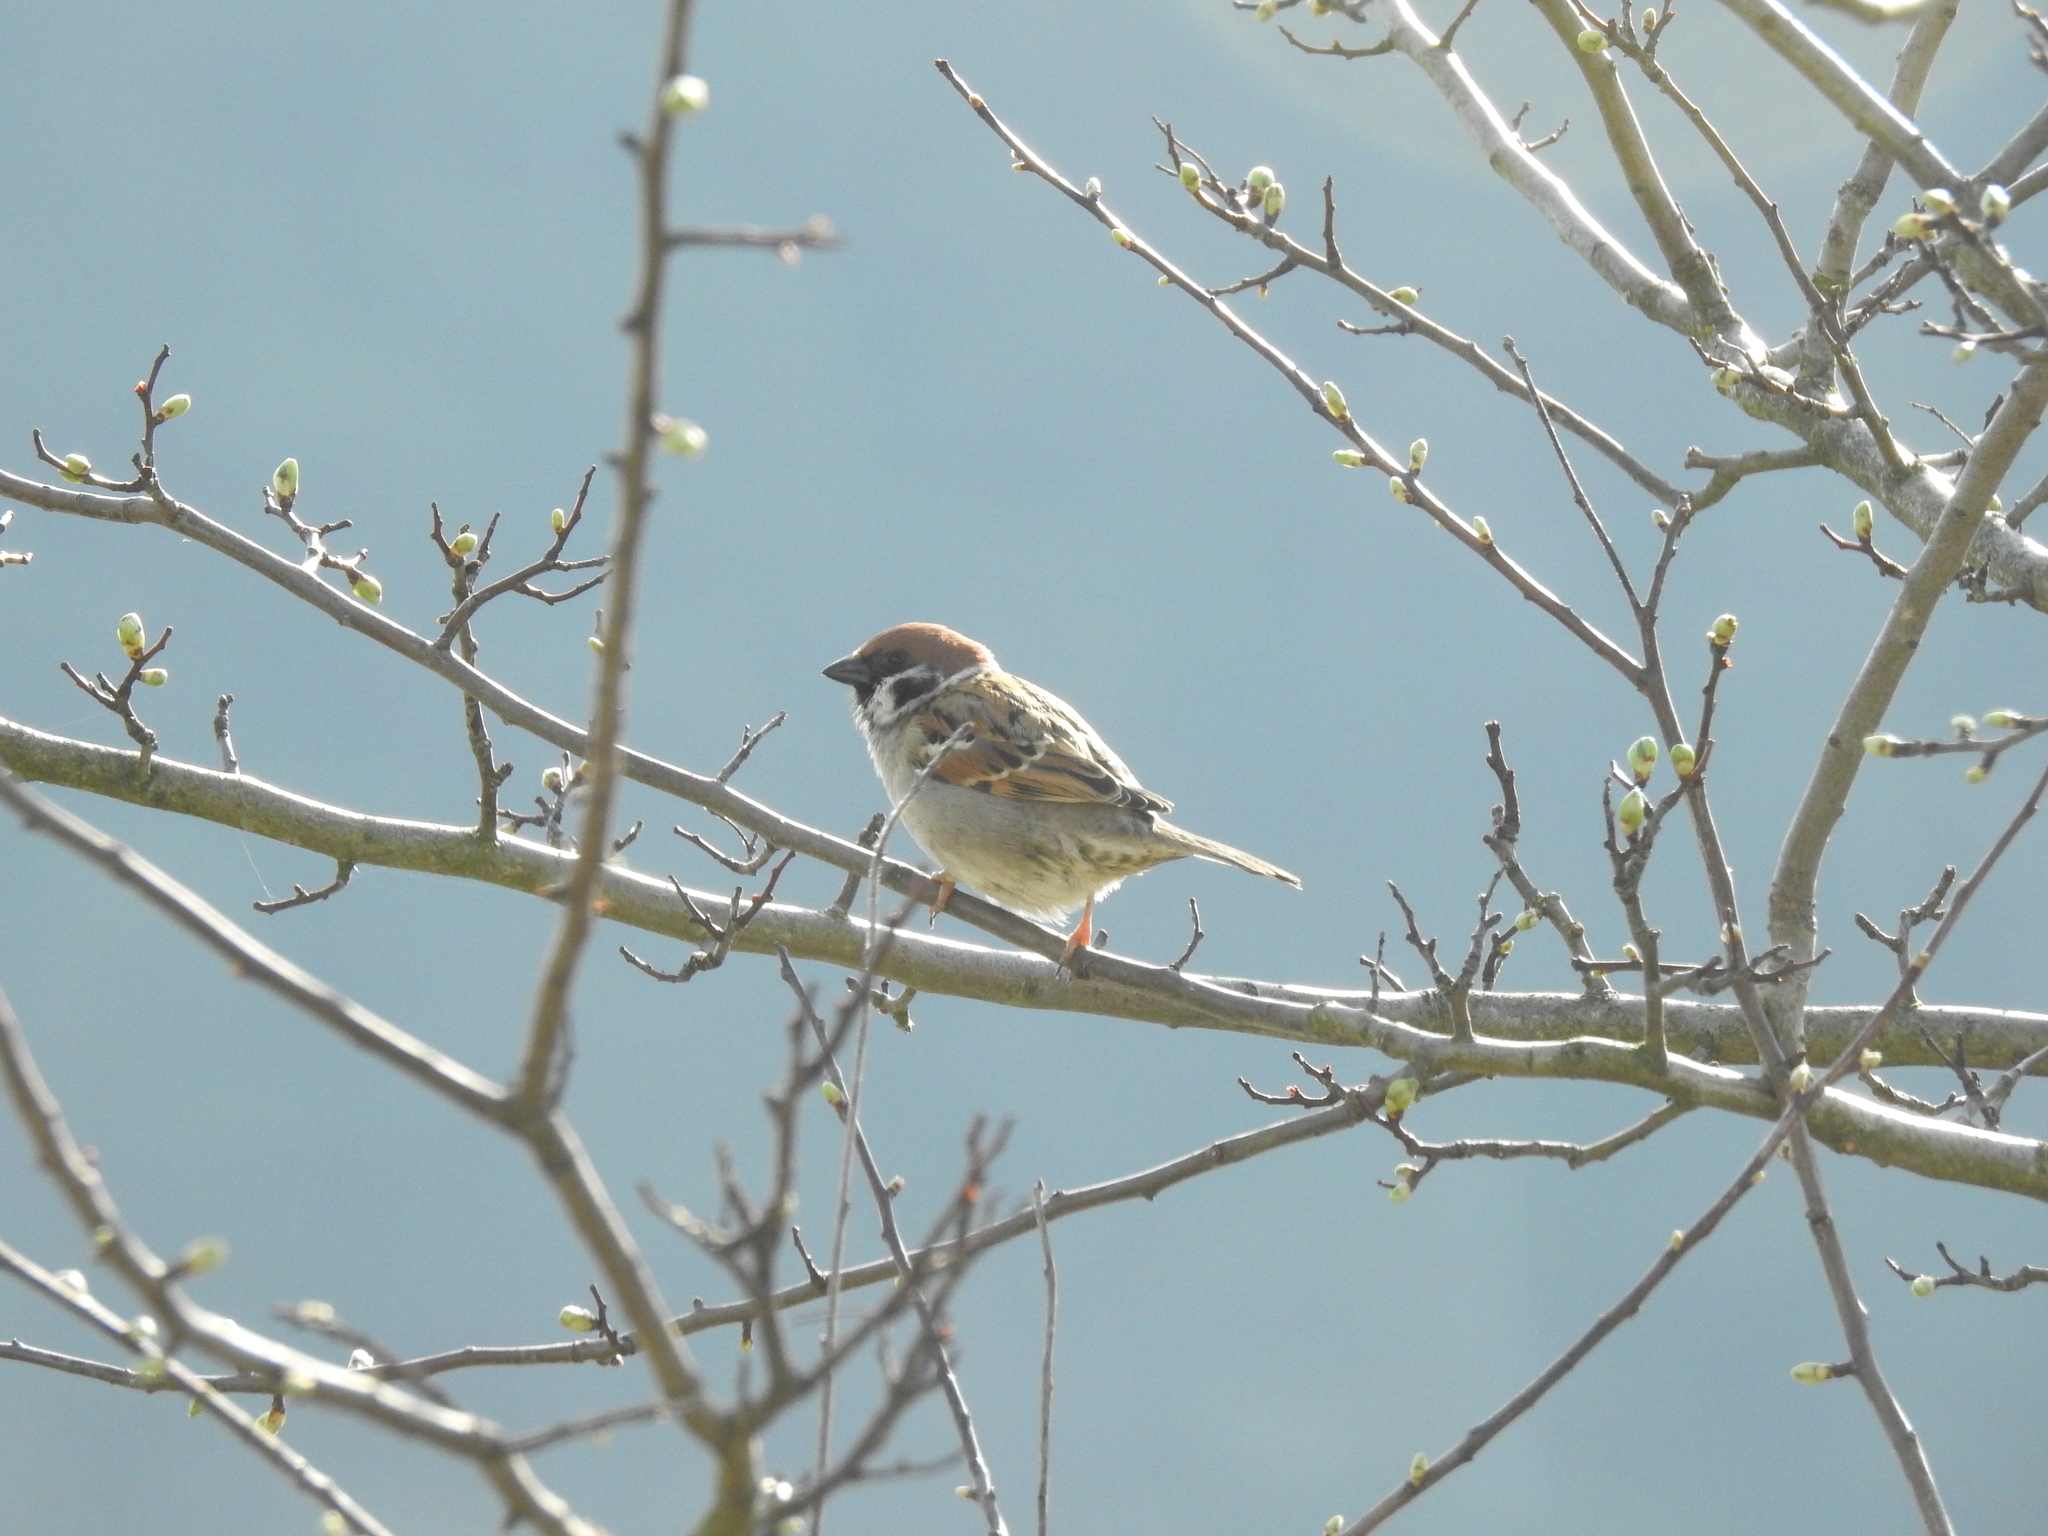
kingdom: Animalia
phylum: Chordata
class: Aves
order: Passeriformes
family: Passeridae
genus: Passer
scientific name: Passer montanus
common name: Eurasian tree sparrow
